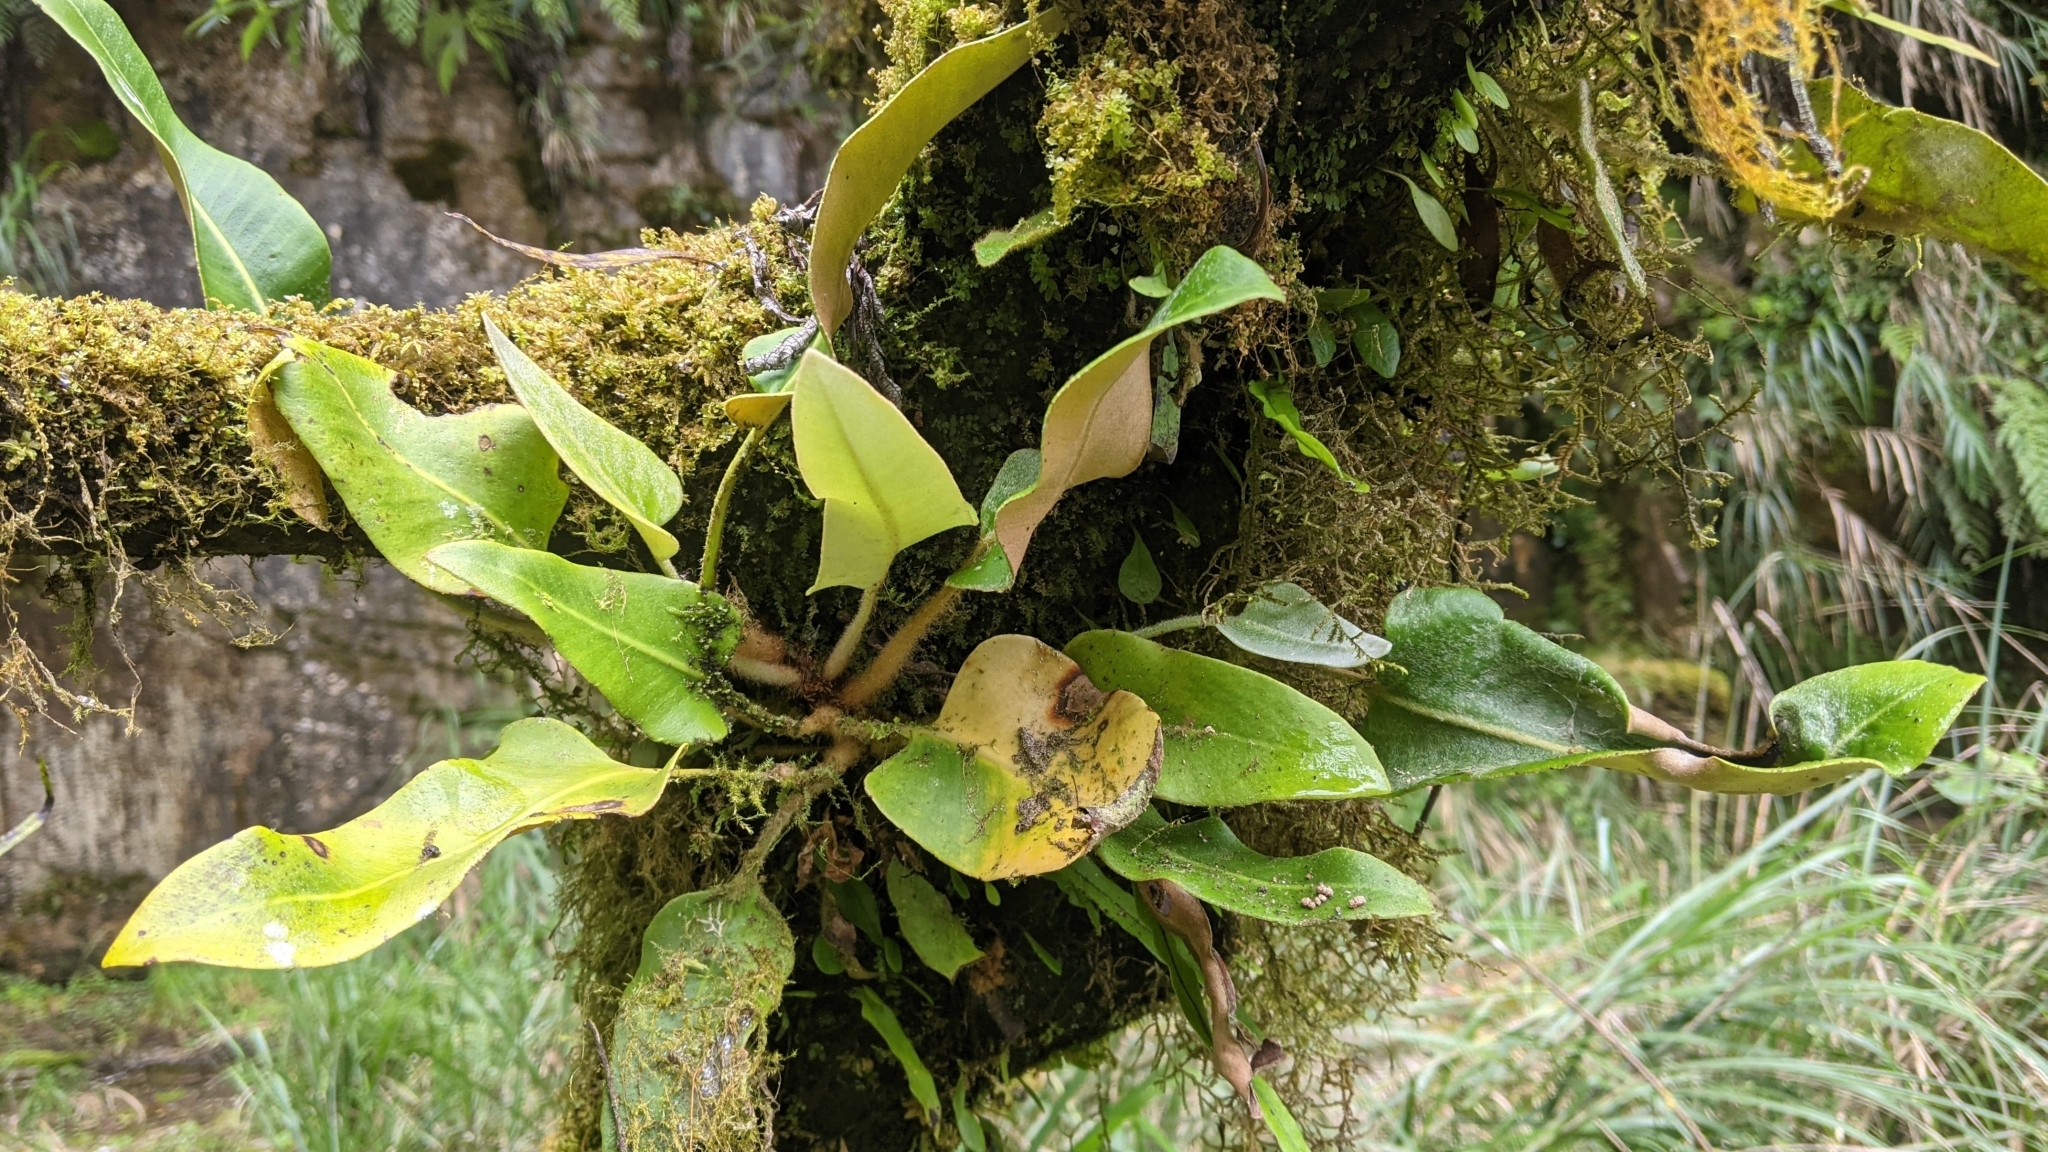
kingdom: Plantae
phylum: Tracheophyta
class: Polypodiopsida
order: Polypodiales
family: Polypodiaceae
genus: Pyrrosia
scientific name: Pyrrosia sheareri
